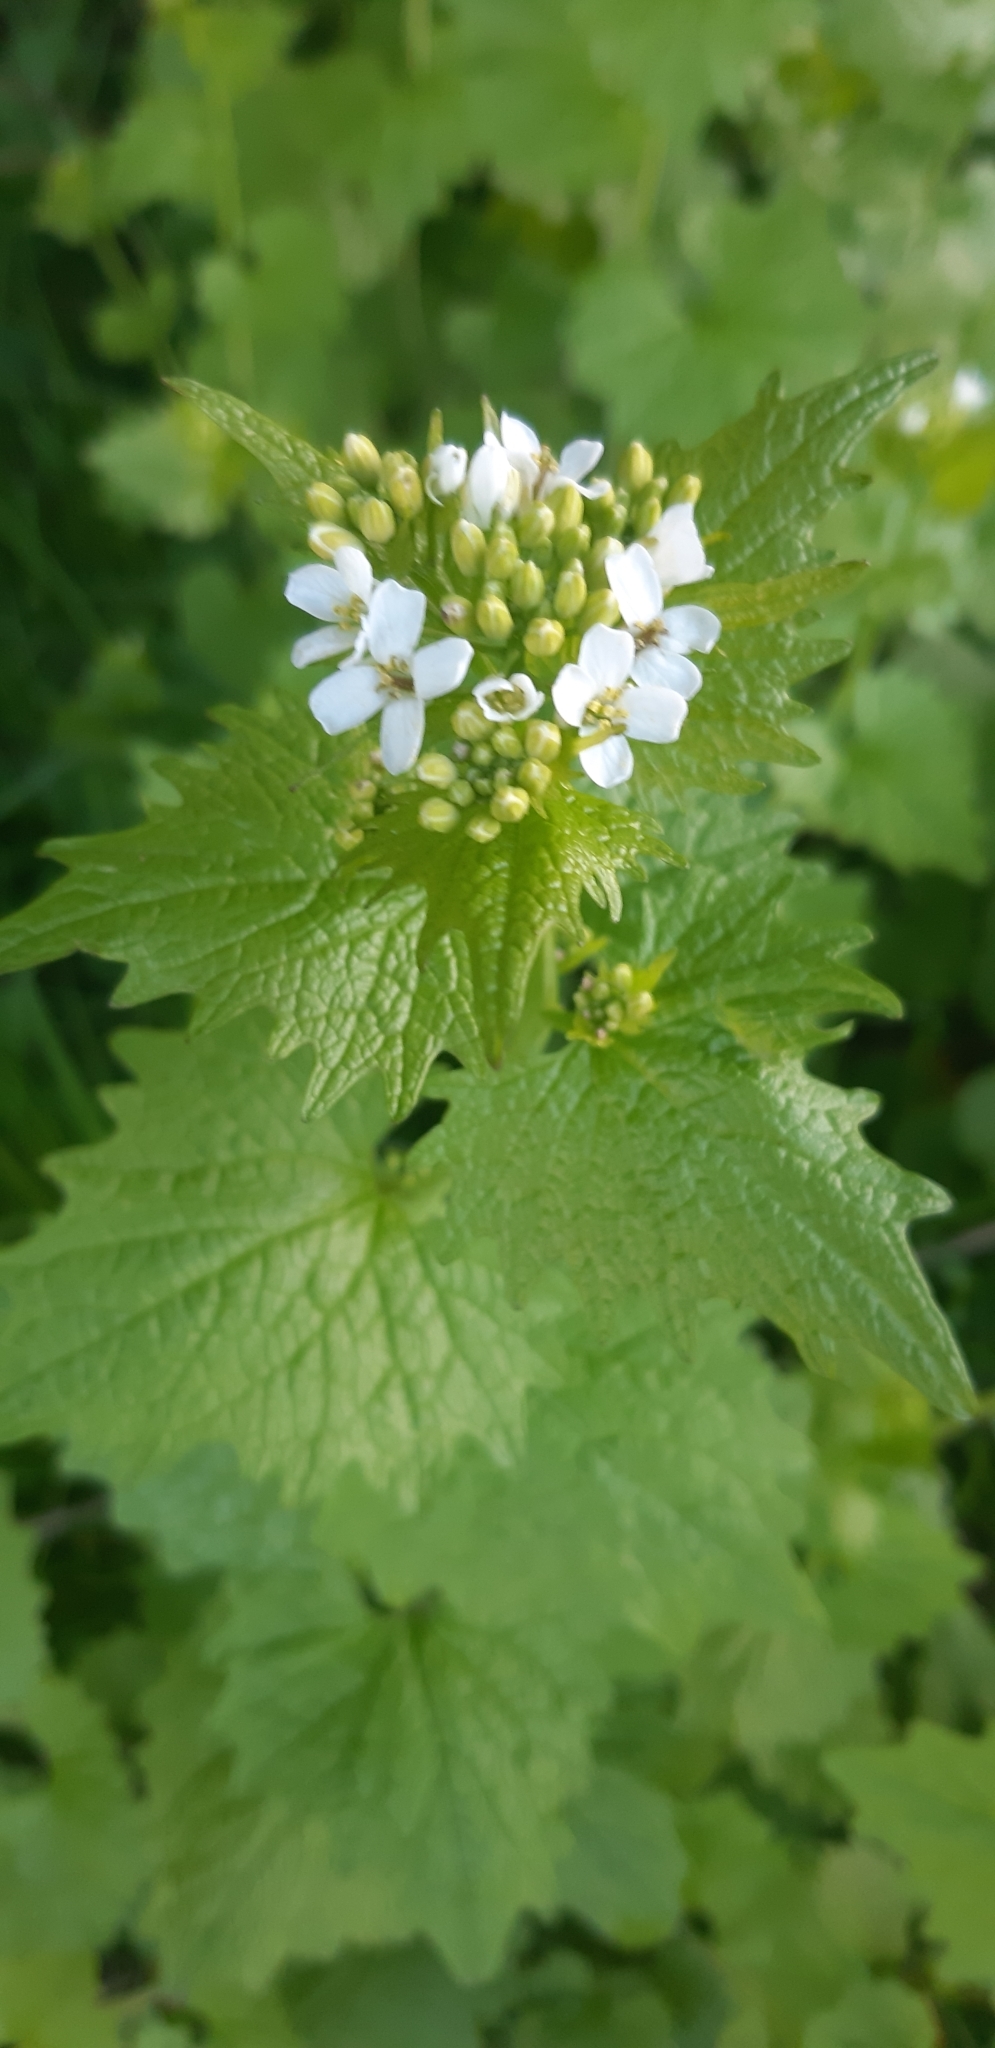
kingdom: Plantae
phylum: Tracheophyta
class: Magnoliopsida
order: Brassicales
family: Brassicaceae
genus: Alliaria
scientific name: Alliaria petiolata
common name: Garlic mustard
